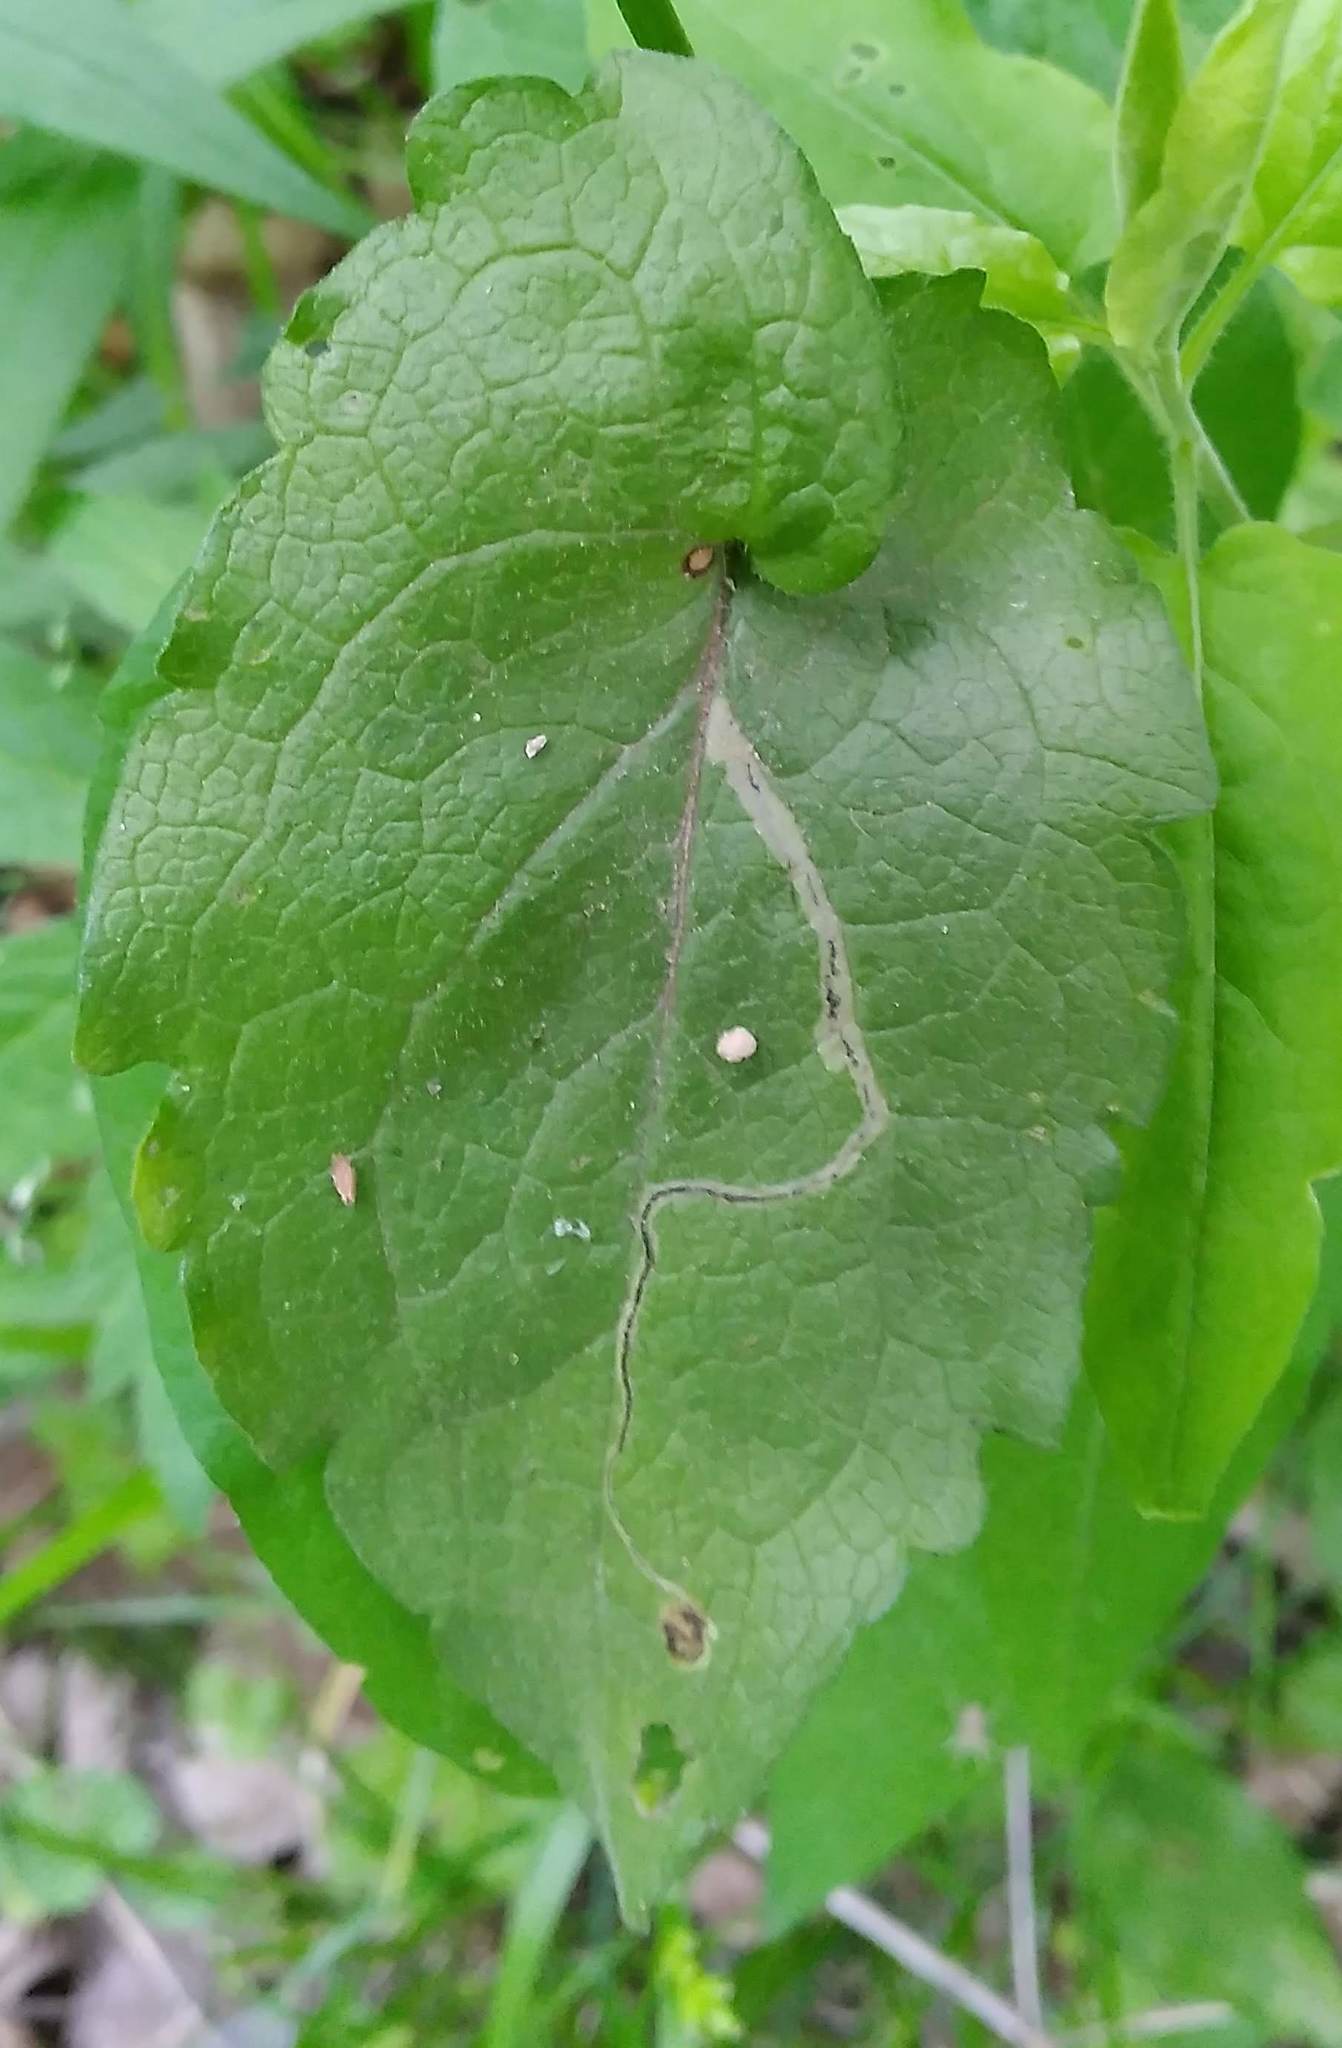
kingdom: Animalia
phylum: Arthropoda
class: Insecta
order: Diptera
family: Agromyzidae
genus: Liriomyza
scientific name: Liriomyza eupatorii
